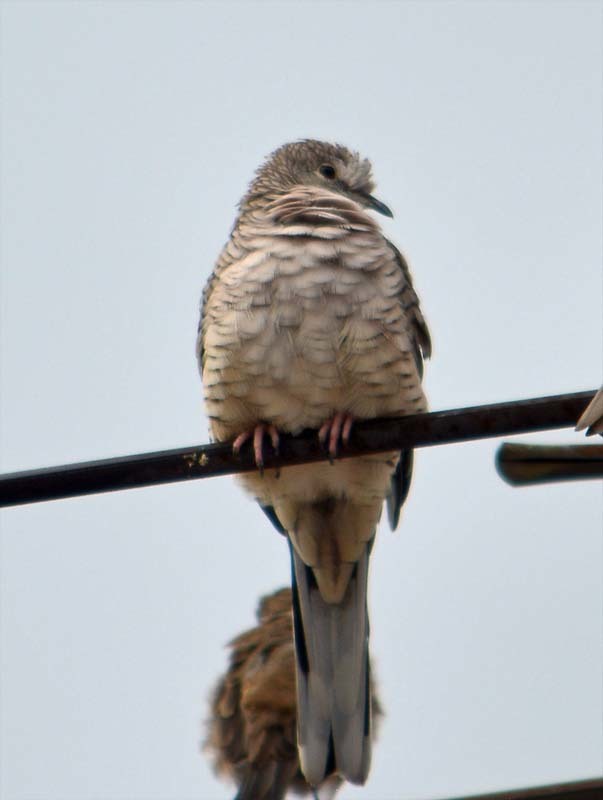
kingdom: Animalia
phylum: Chordata
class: Aves
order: Columbiformes
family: Columbidae
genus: Columbina
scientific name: Columbina inca
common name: Inca dove
